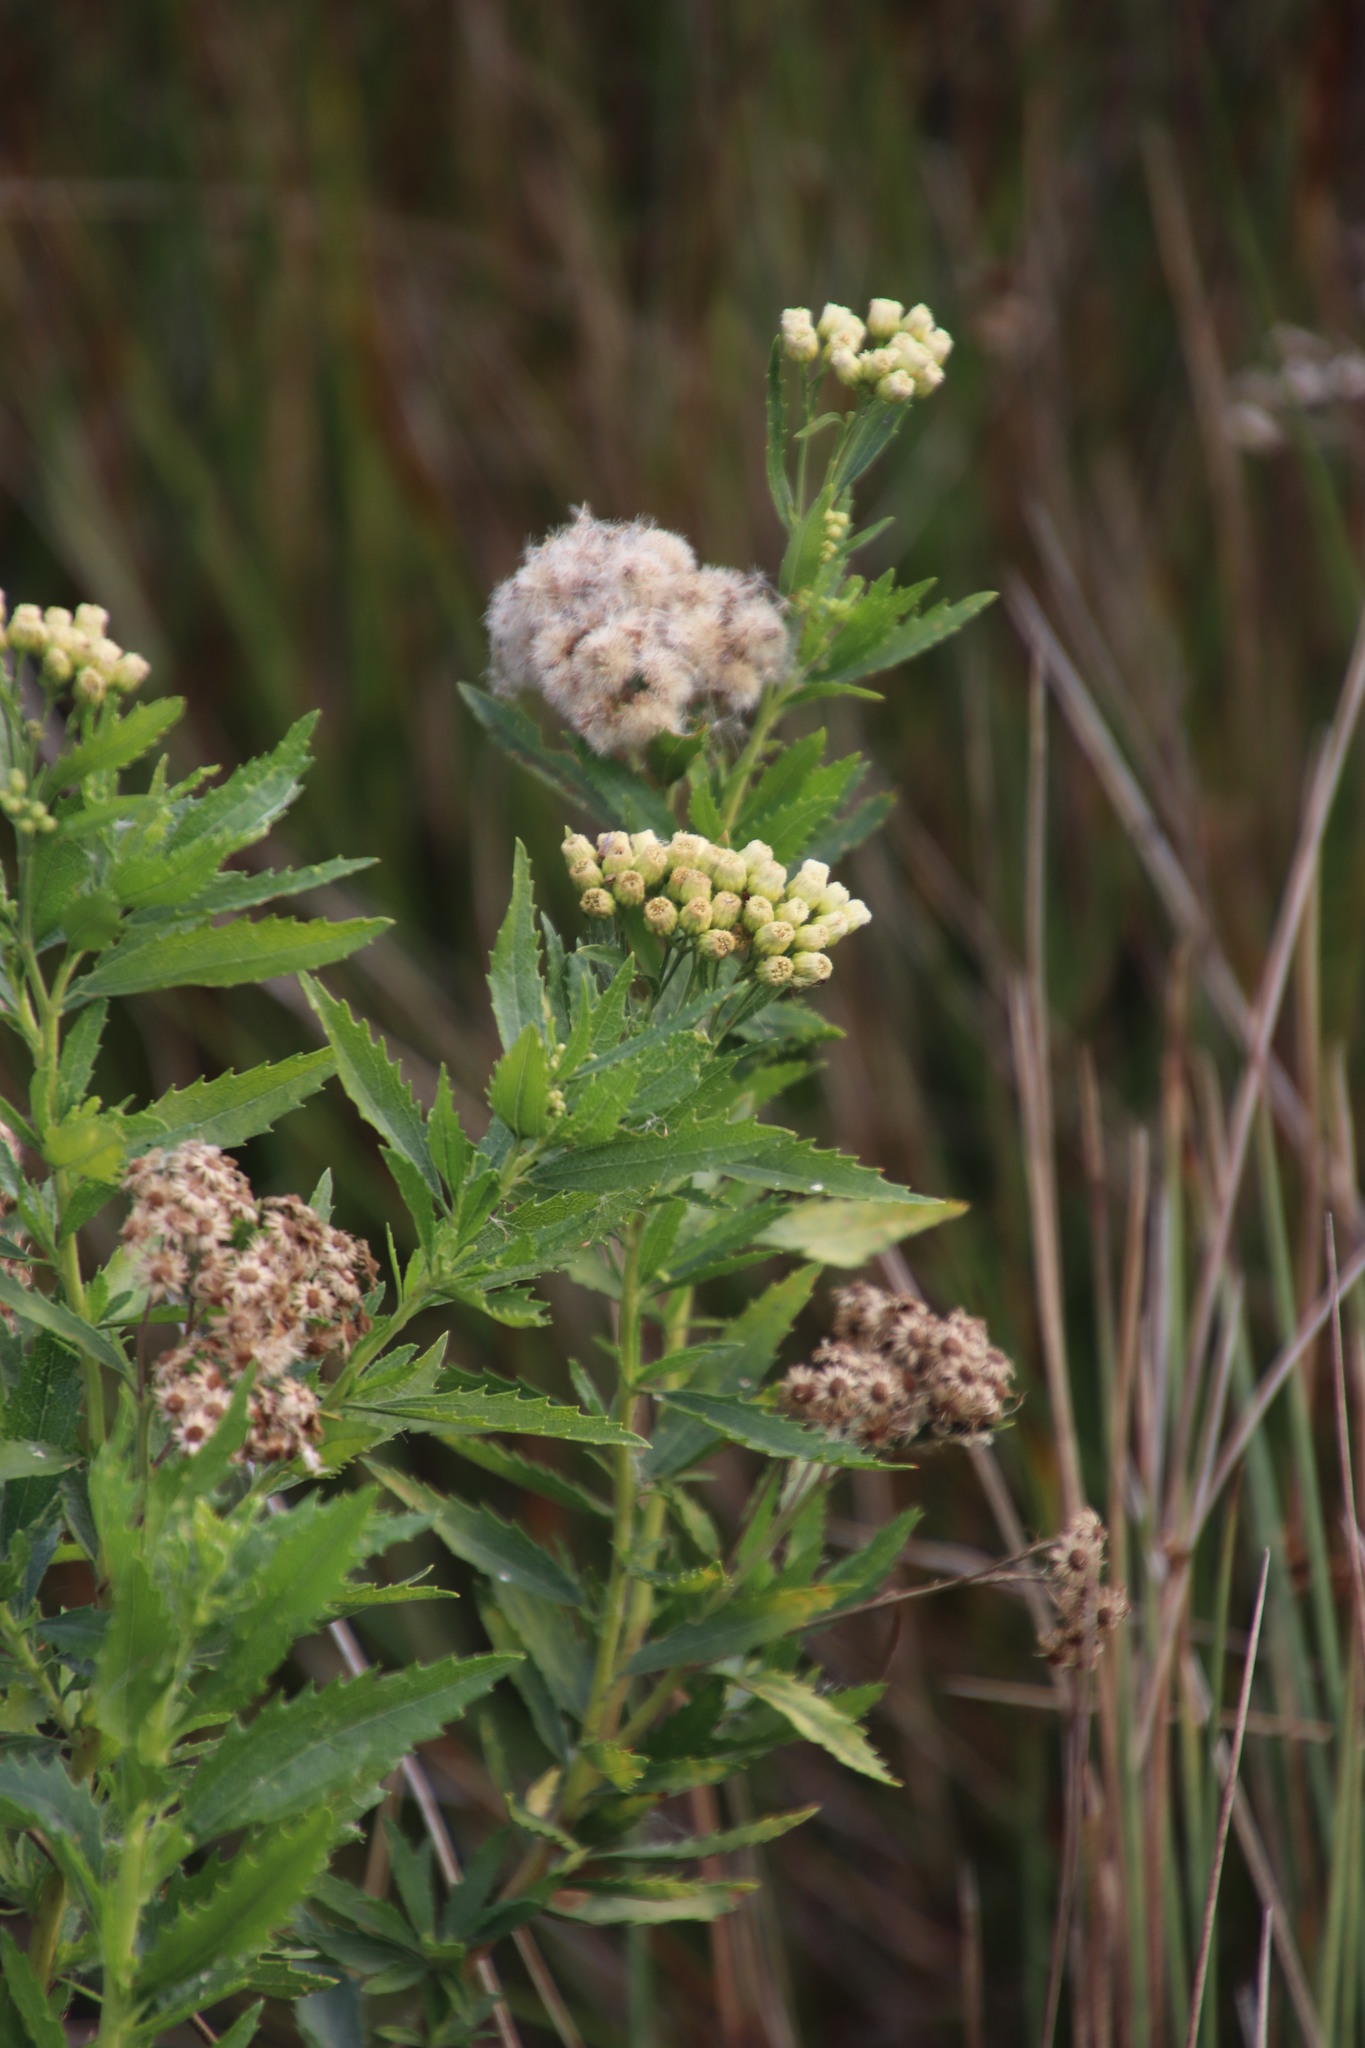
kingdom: Plantae
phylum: Tracheophyta
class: Magnoliopsida
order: Asterales
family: Asteraceae
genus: Nidorella
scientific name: Nidorella ivifolia
